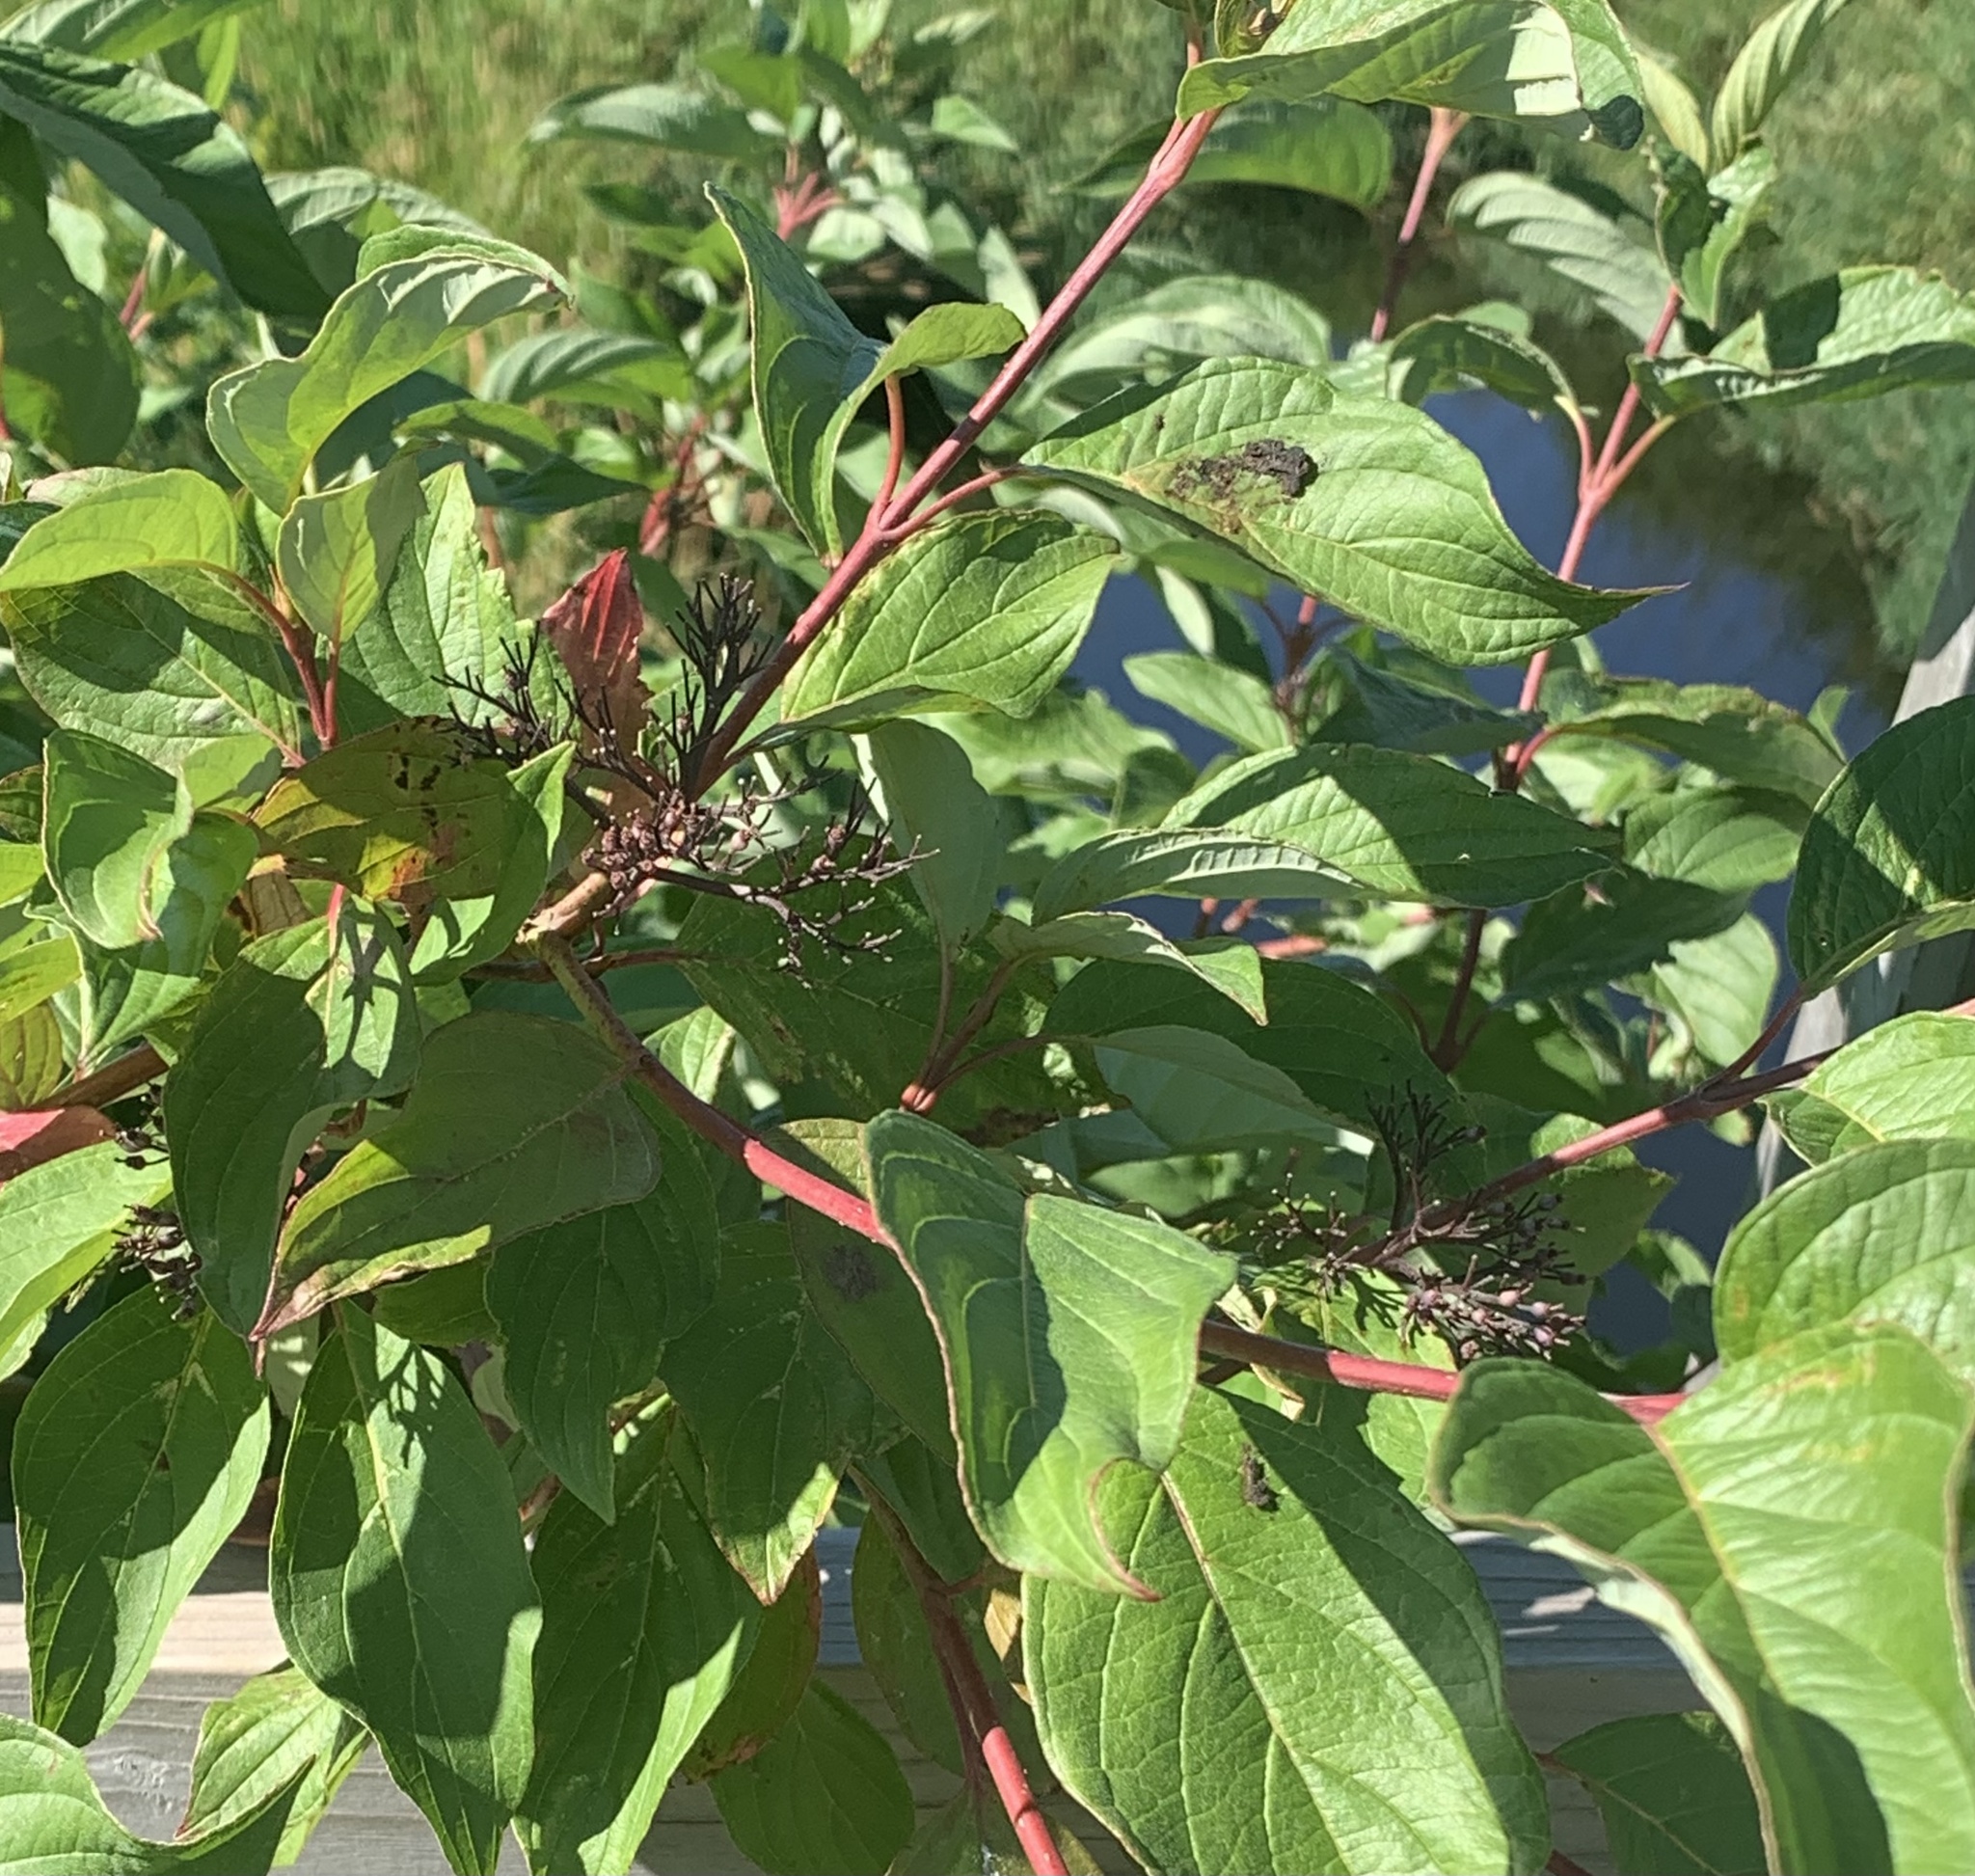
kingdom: Plantae
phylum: Tracheophyta
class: Magnoliopsida
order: Cornales
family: Cornaceae
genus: Cornus
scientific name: Cornus sericea
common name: Red-osier dogwood
